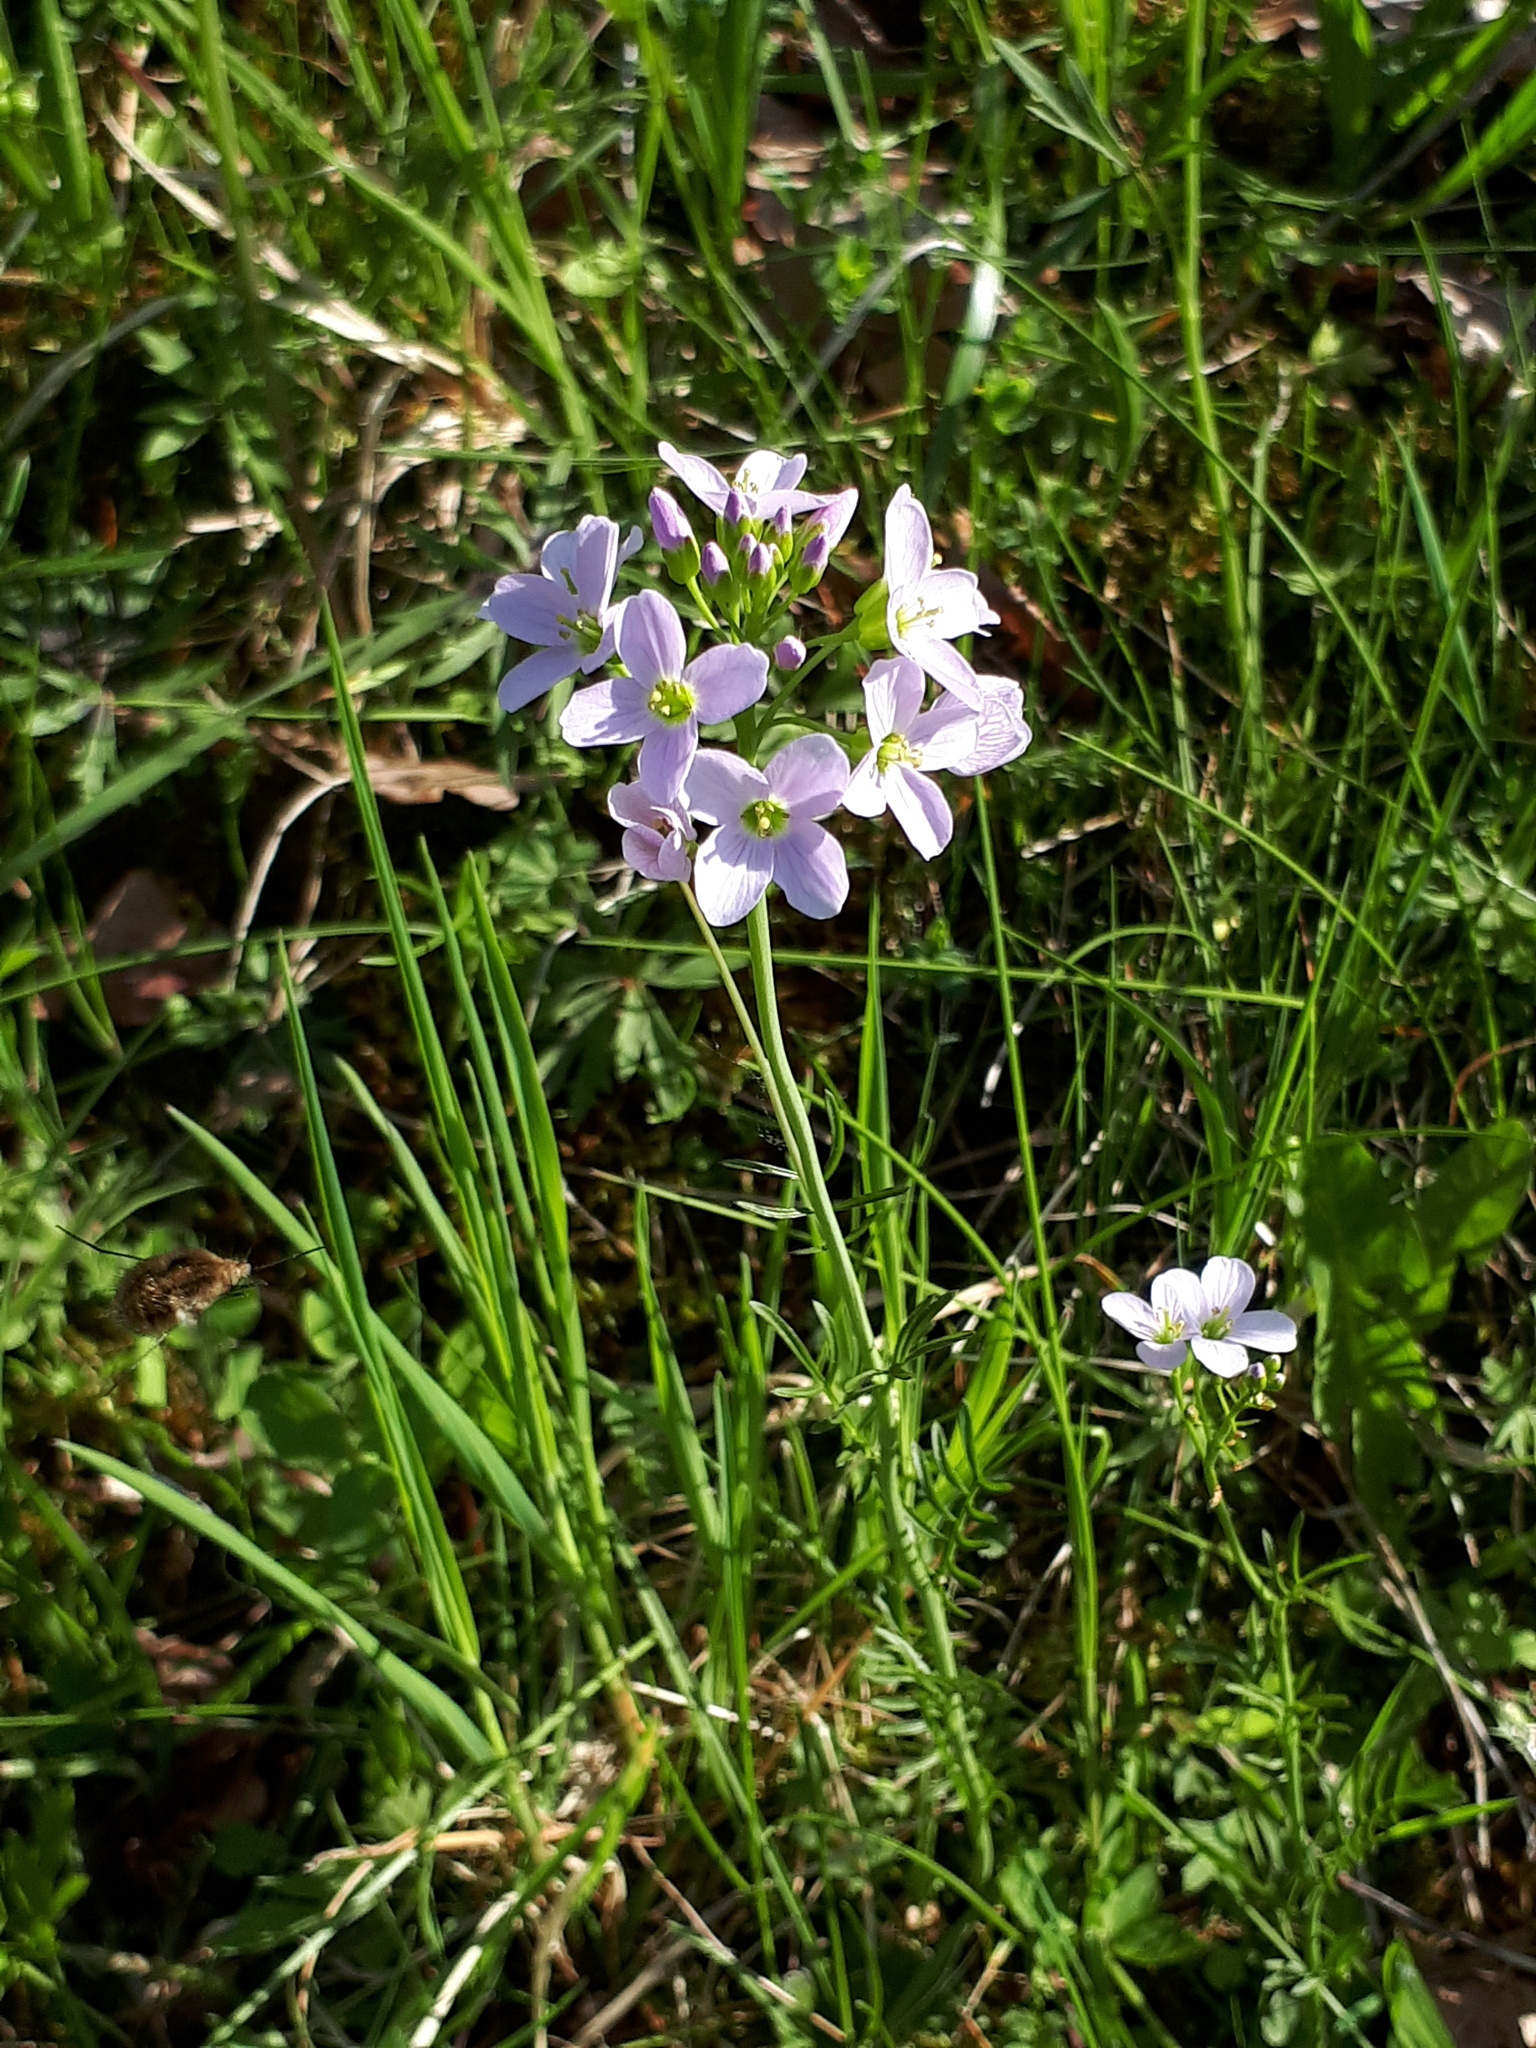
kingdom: Plantae
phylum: Tracheophyta
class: Magnoliopsida
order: Brassicales
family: Brassicaceae
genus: Cardamine
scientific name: Cardamine pratensis
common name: Cuckoo flower
